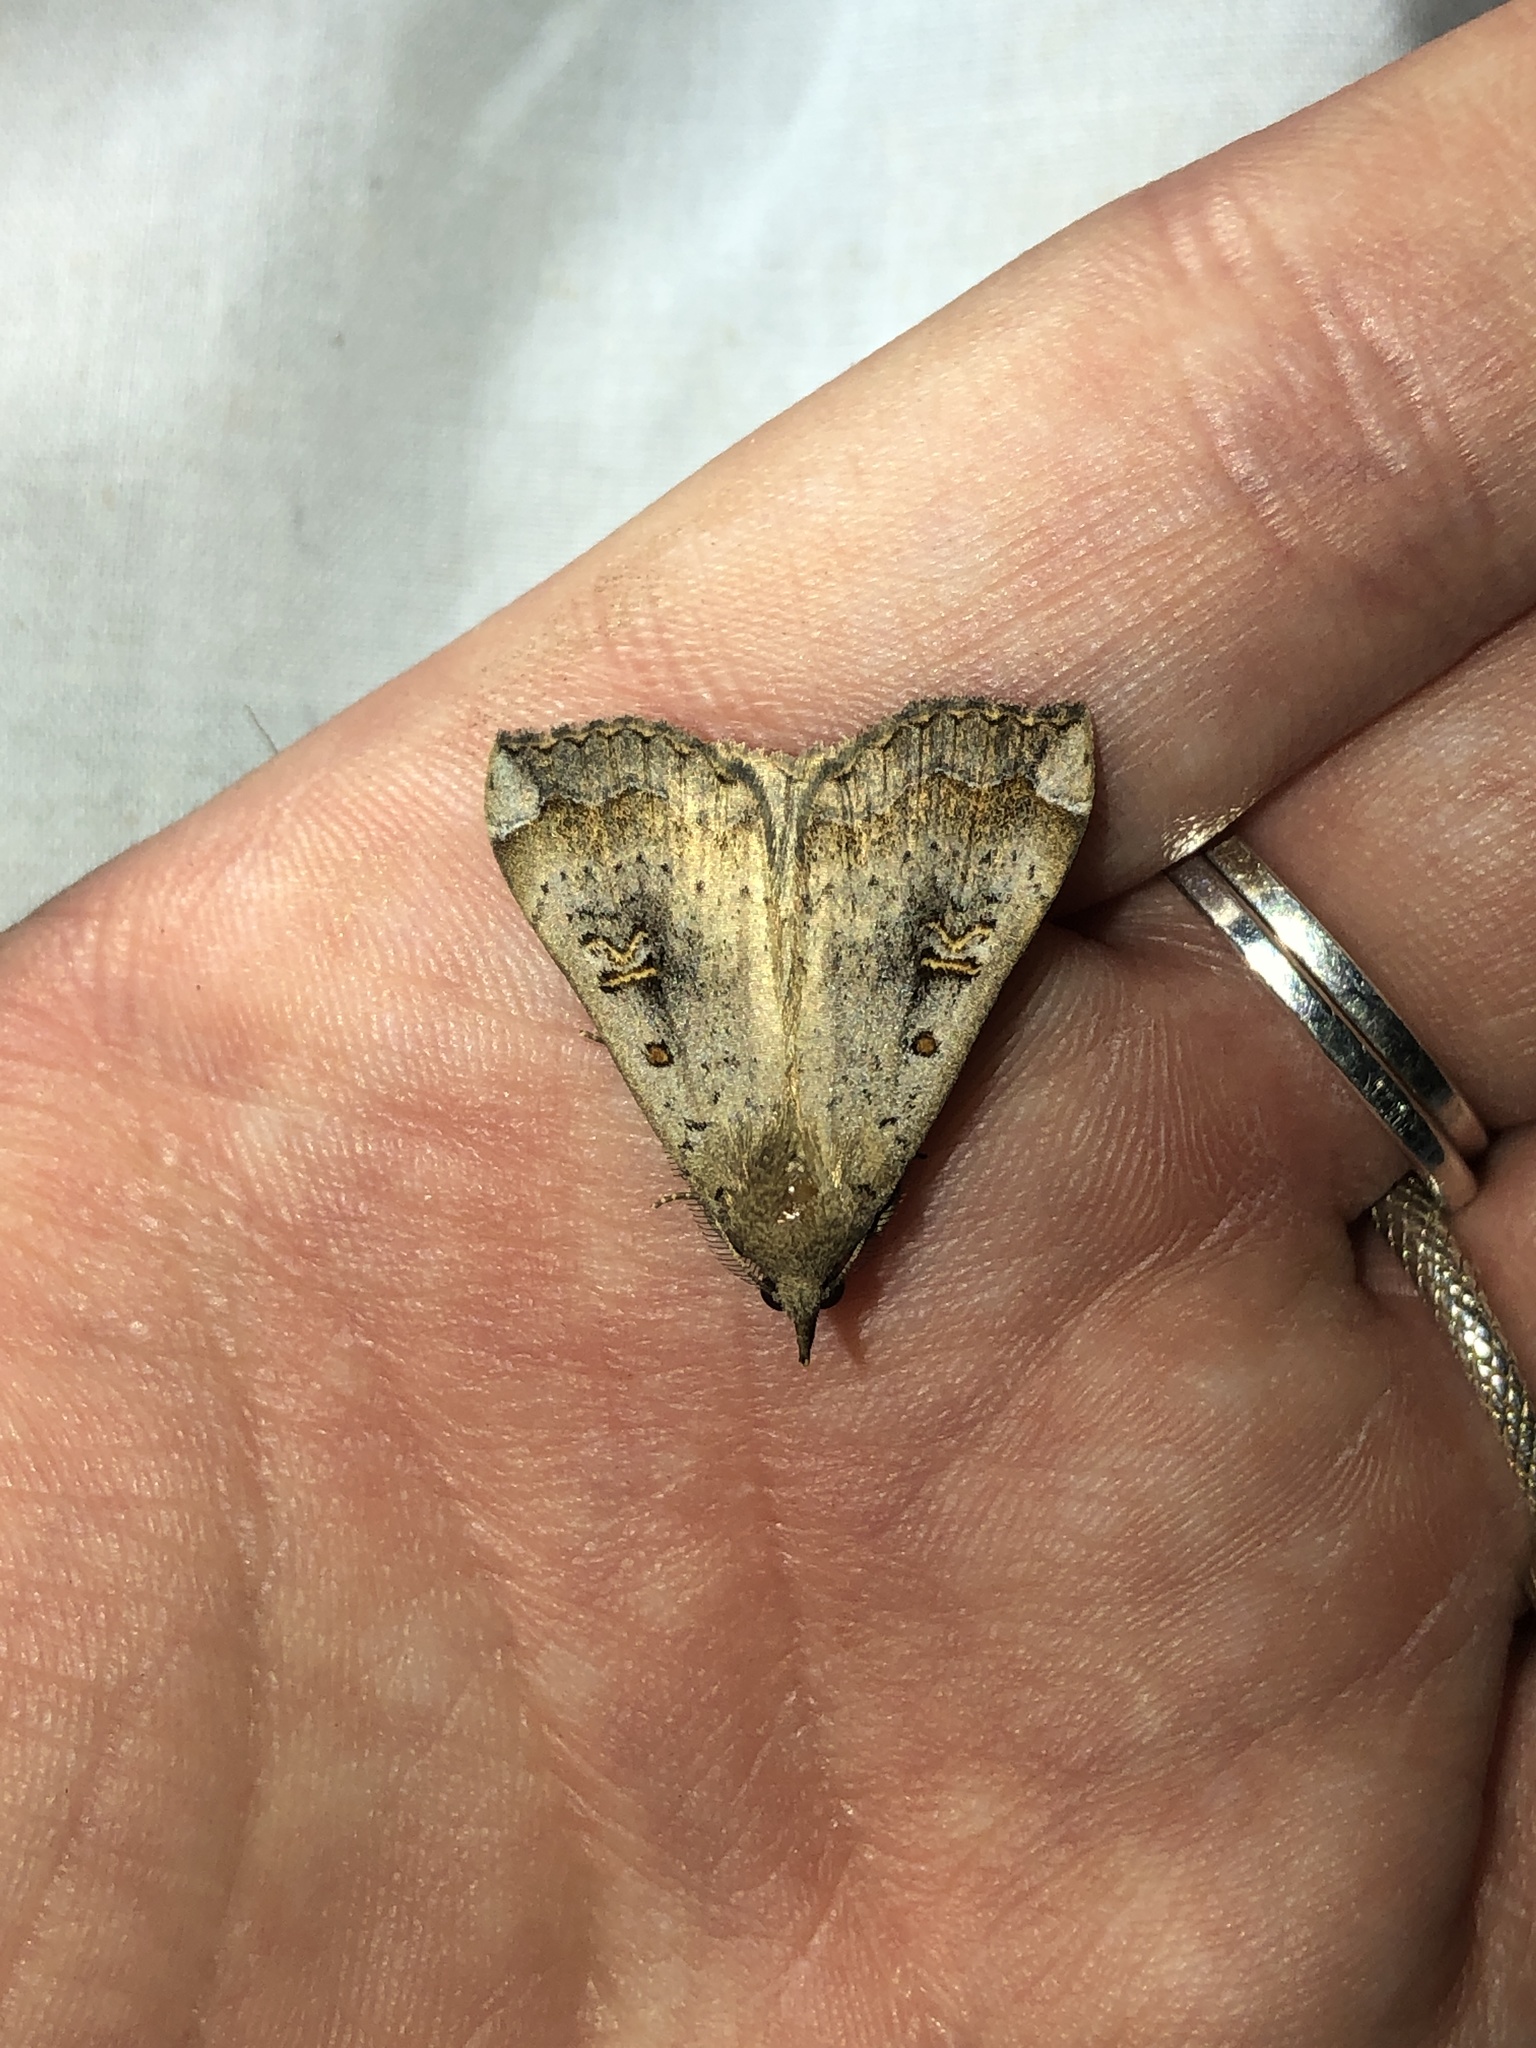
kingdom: Animalia
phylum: Arthropoda
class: Insecta
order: Lepidoptera
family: Erebidae
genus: Rhapsa
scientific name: Rhapsa scotosialis
